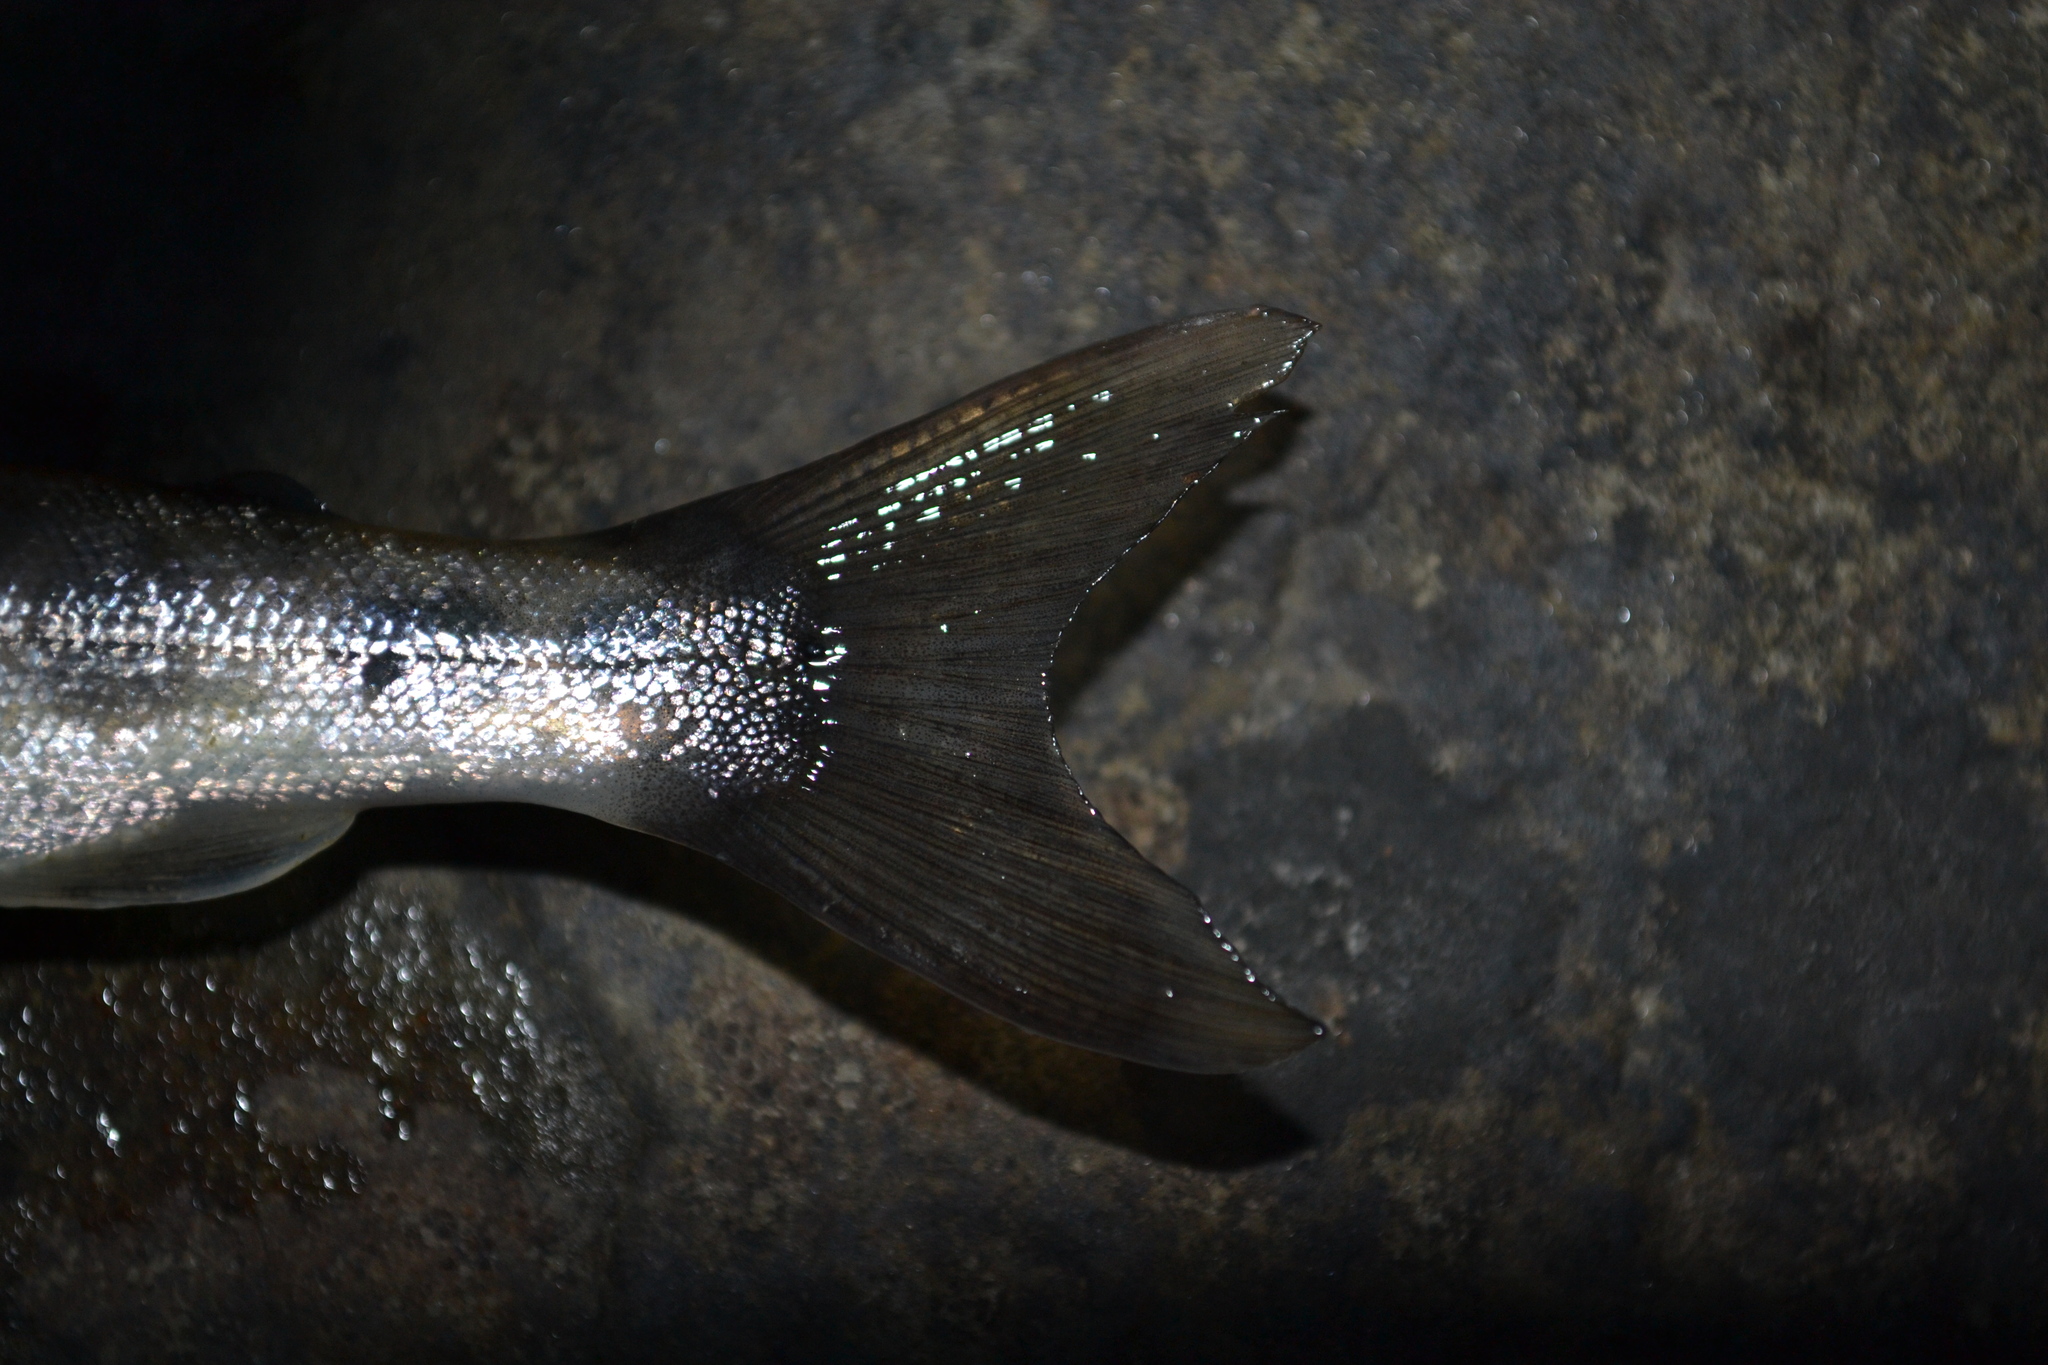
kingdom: Animalia
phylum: Chordata
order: Salmoniformes
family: Salmonidae
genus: Salmo
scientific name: Salmo salar
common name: Atlantic salmon
